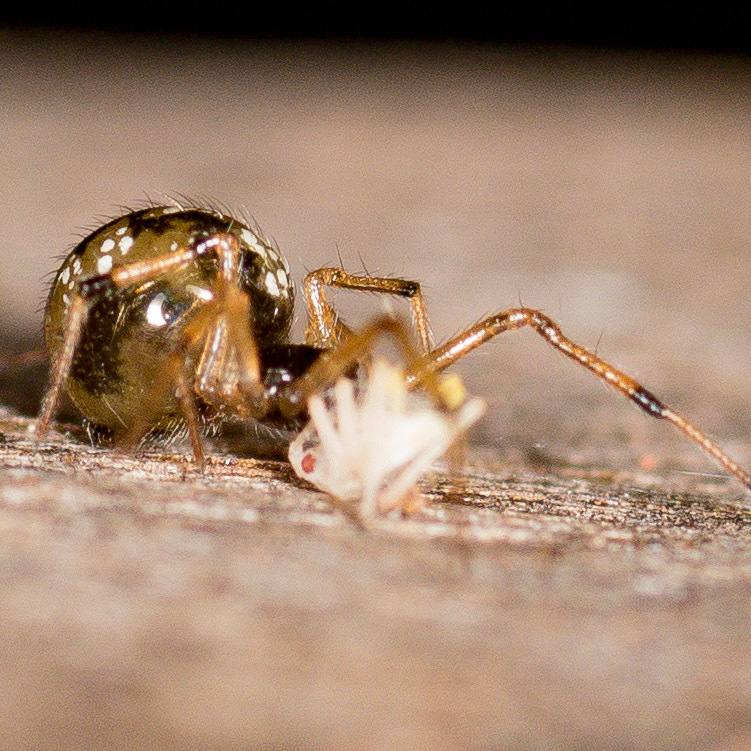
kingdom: Animalia
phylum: Arthropoda
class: Arachnida
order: Araneae
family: Theridiidae
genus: Steatoda
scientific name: Steatoda triangulosa
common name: Triangulate bud spider
